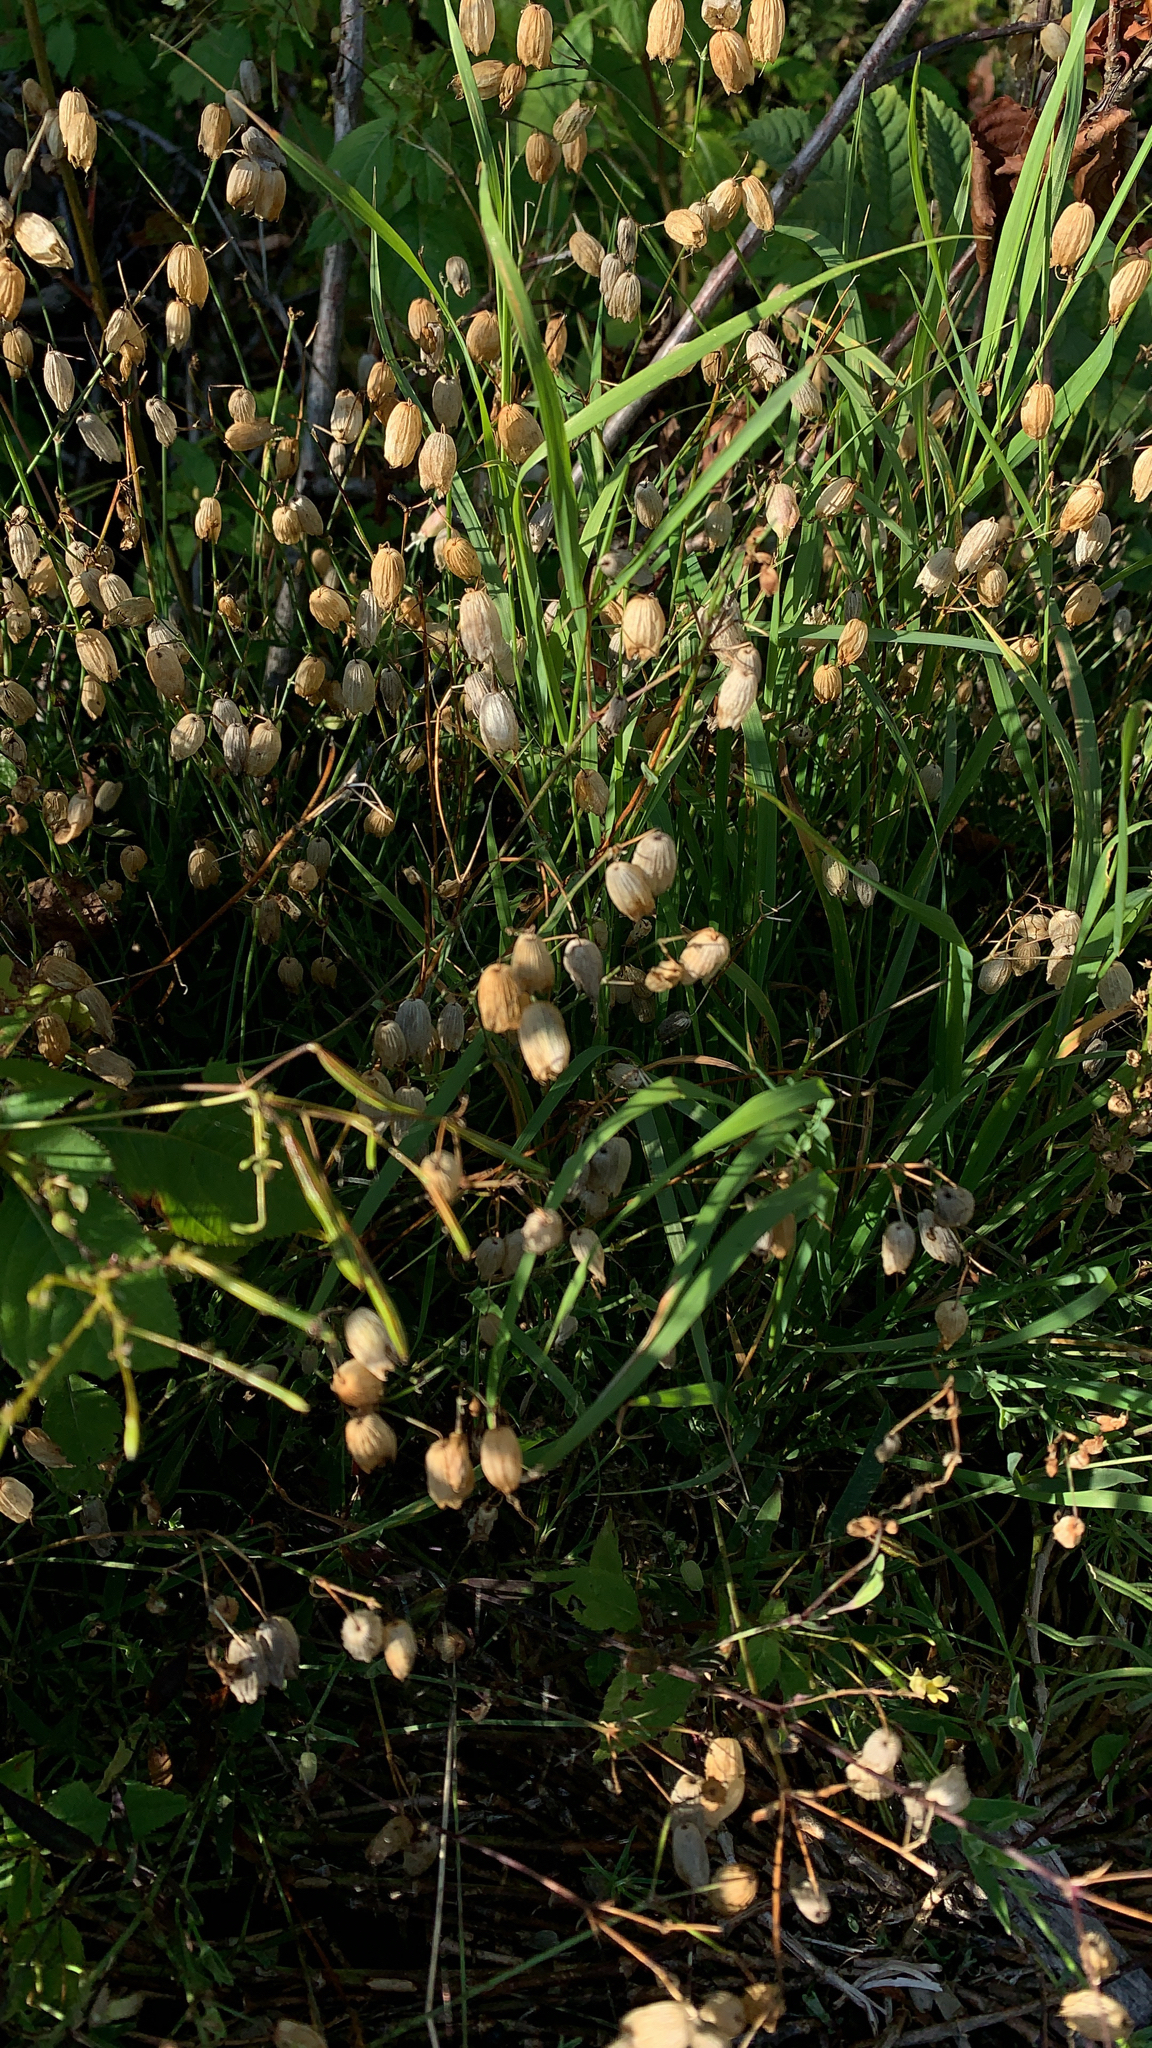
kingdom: Plantae
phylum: Tracheophyta
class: Magnoliopsida
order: Caryophyllales
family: Caryophyllaceae
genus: Silene
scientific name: Silene vulgaris
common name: Bladder campion
